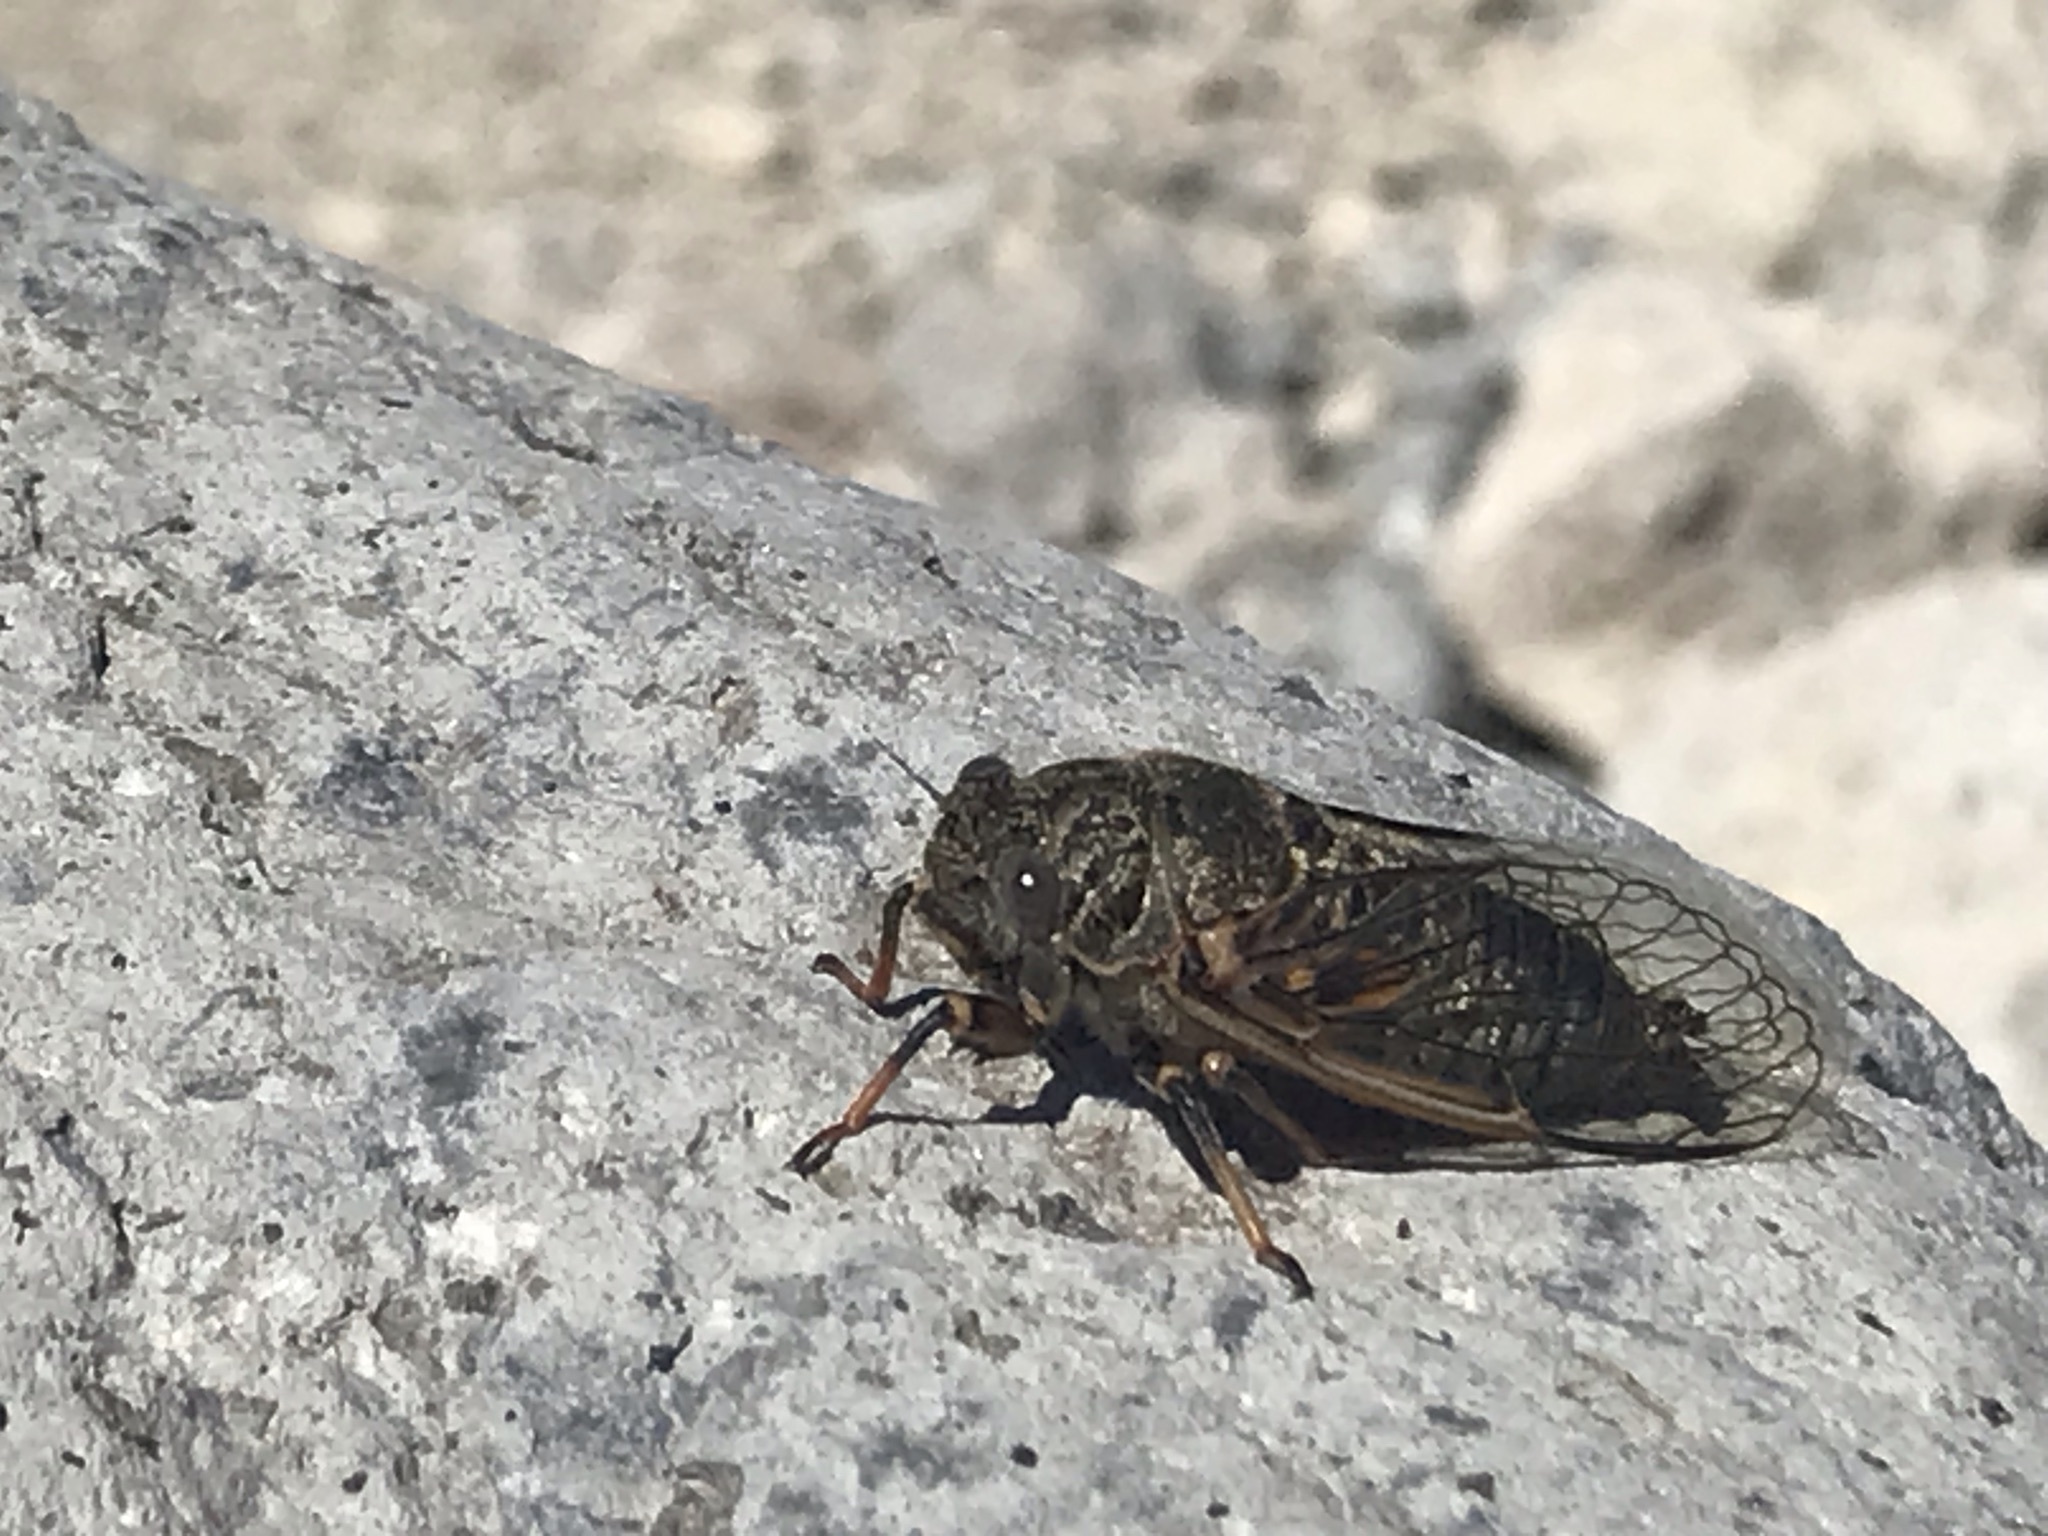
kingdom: Animalia
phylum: Arthropoda
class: Insecta
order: Hemiptera
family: Cicadidae
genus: Okanagana
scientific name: Okanagana villosa
